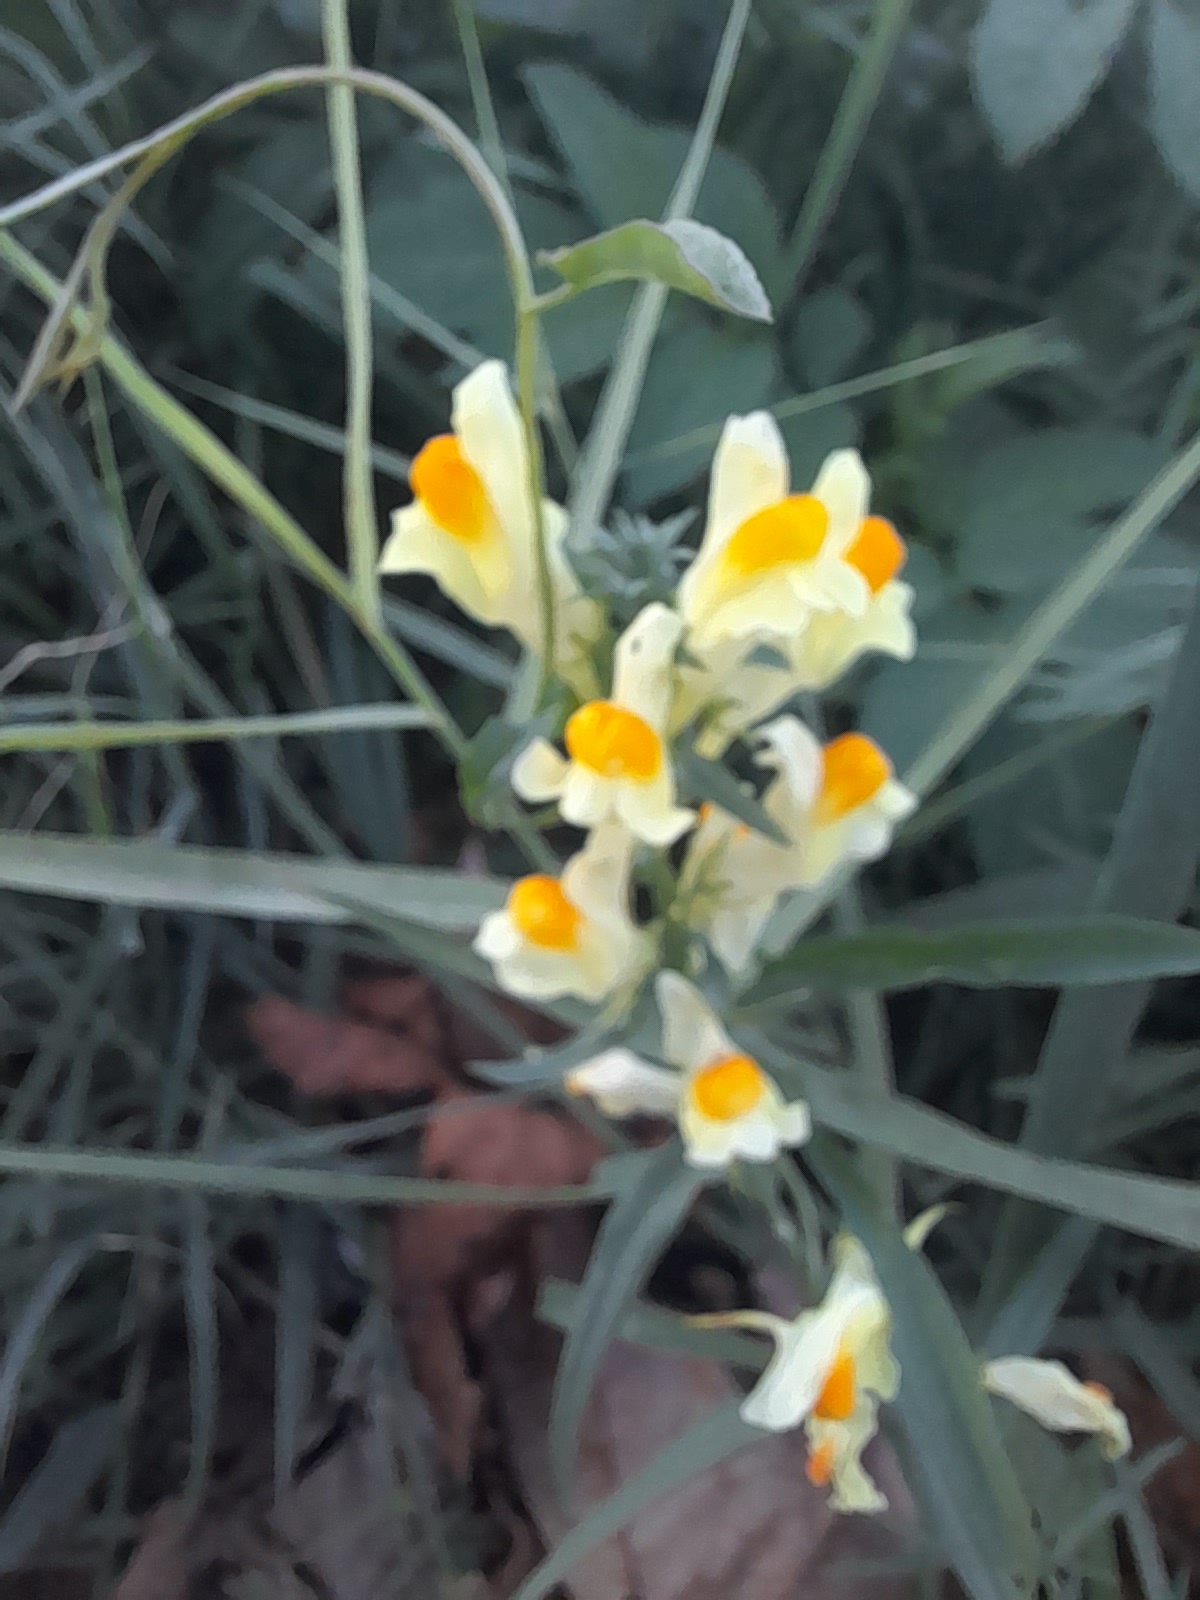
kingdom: Plantae
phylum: Tracheophyta
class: Magnoliopsida
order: Lamiales
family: Plantaginaceae
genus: Linaria
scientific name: Linaria vulgaris
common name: Butter and eggs
